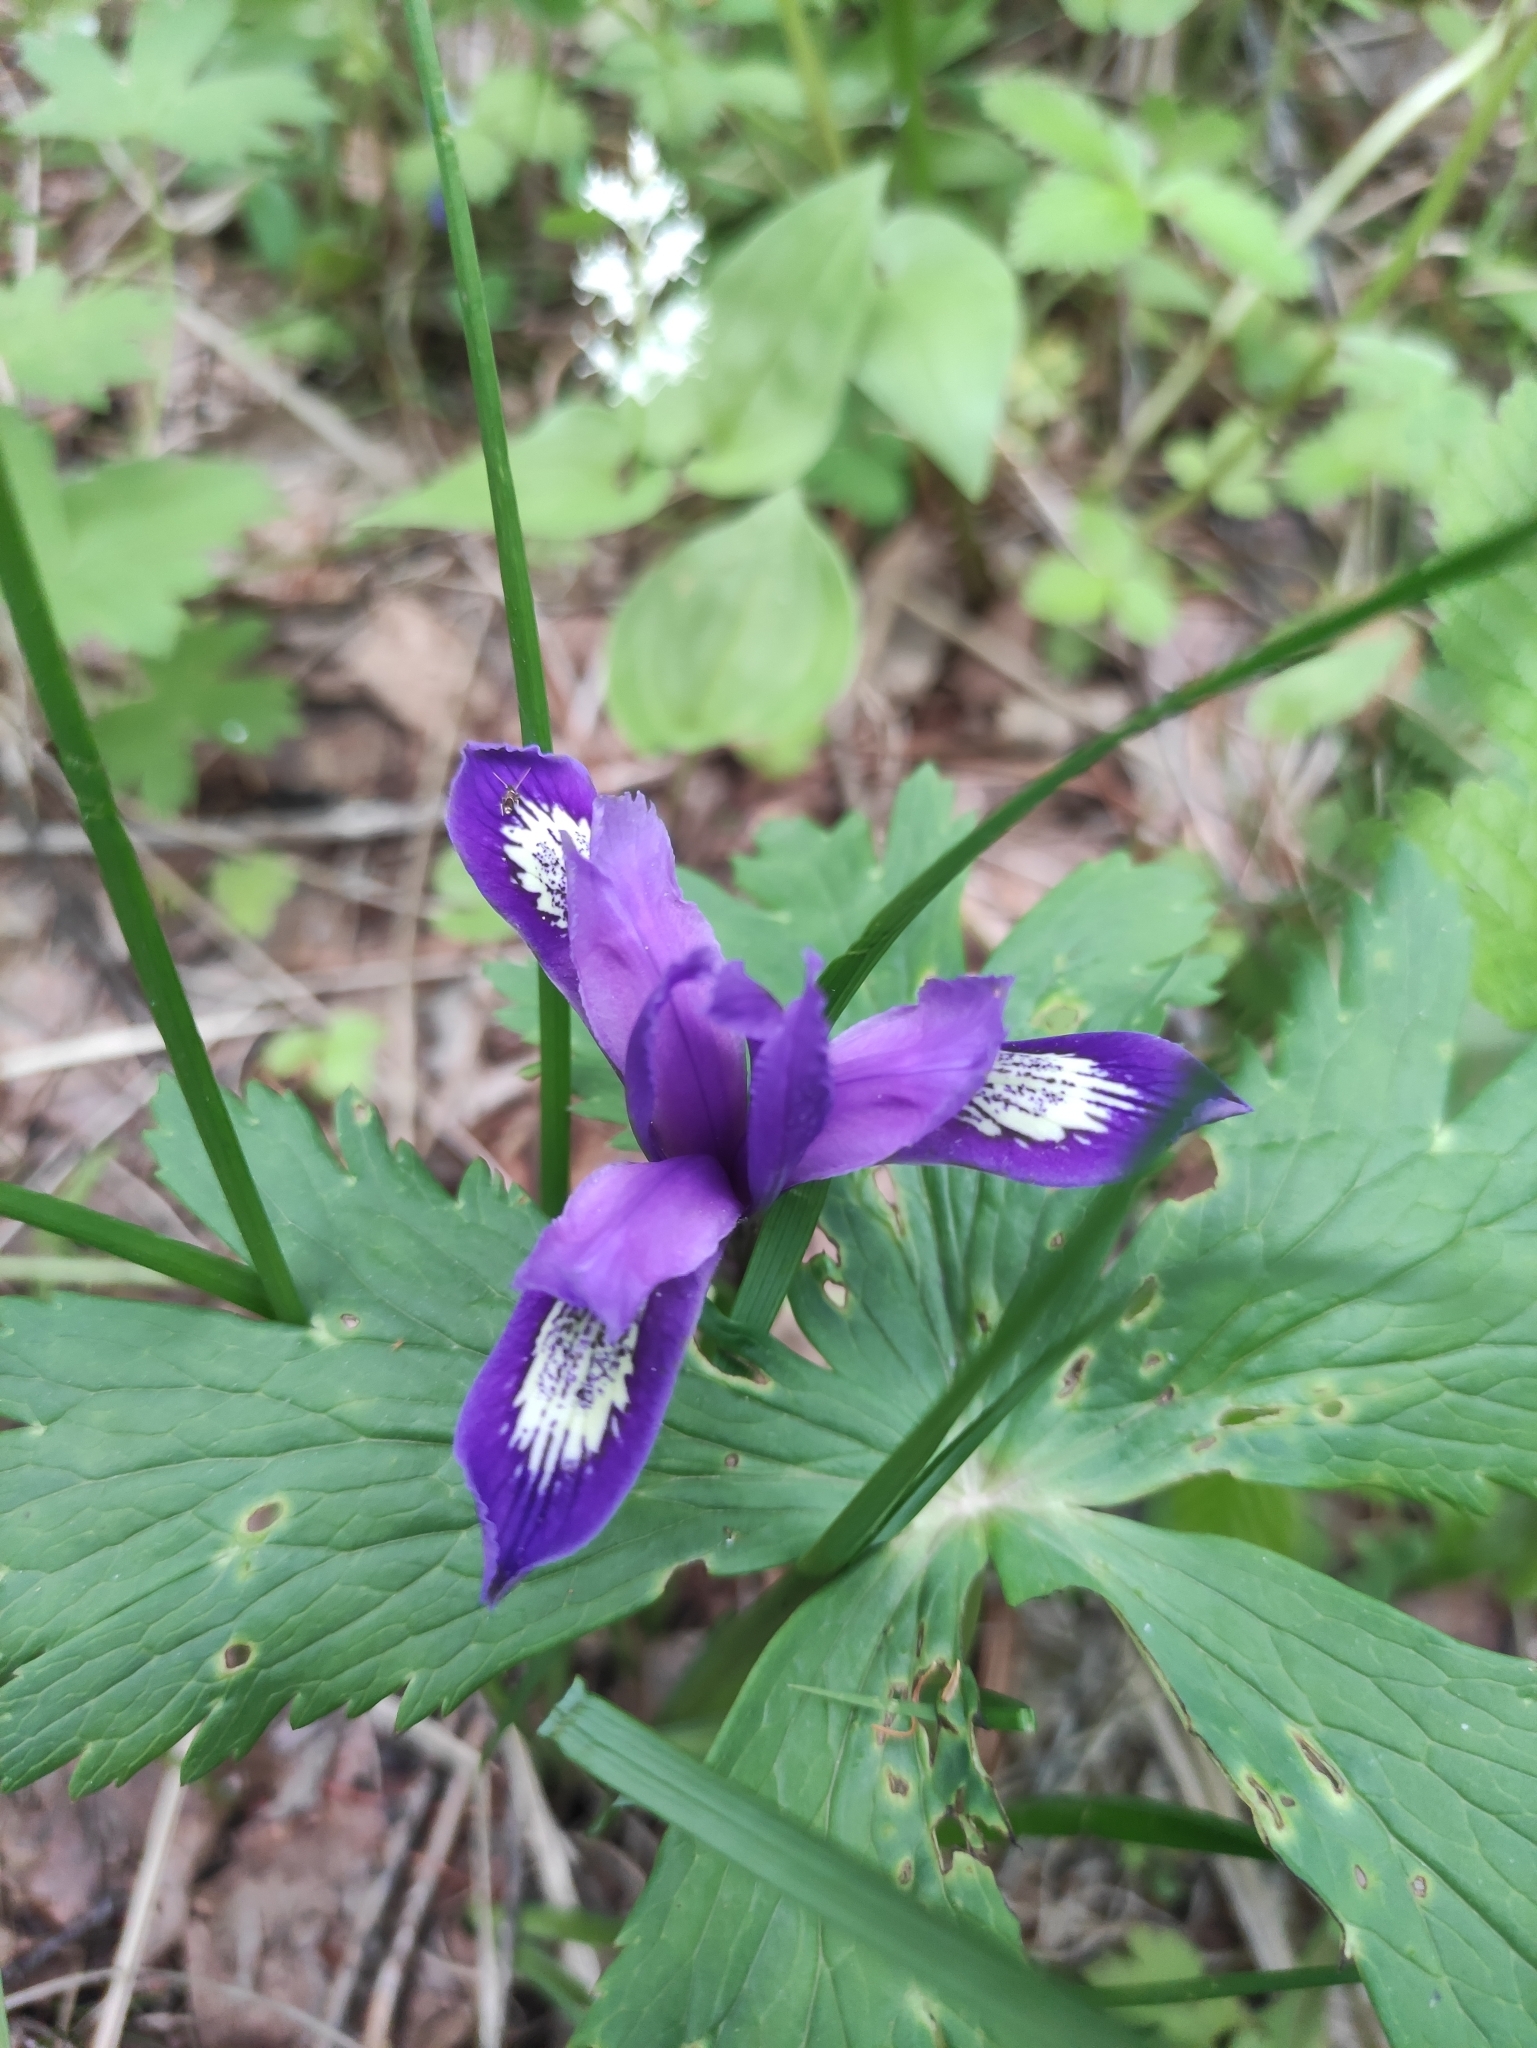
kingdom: Plantae
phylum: Tracheophyta
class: Liliopsida
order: Asparagales
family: Iridaceae
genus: Iris
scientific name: Iris ruthenica
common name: Purple-bract iris
